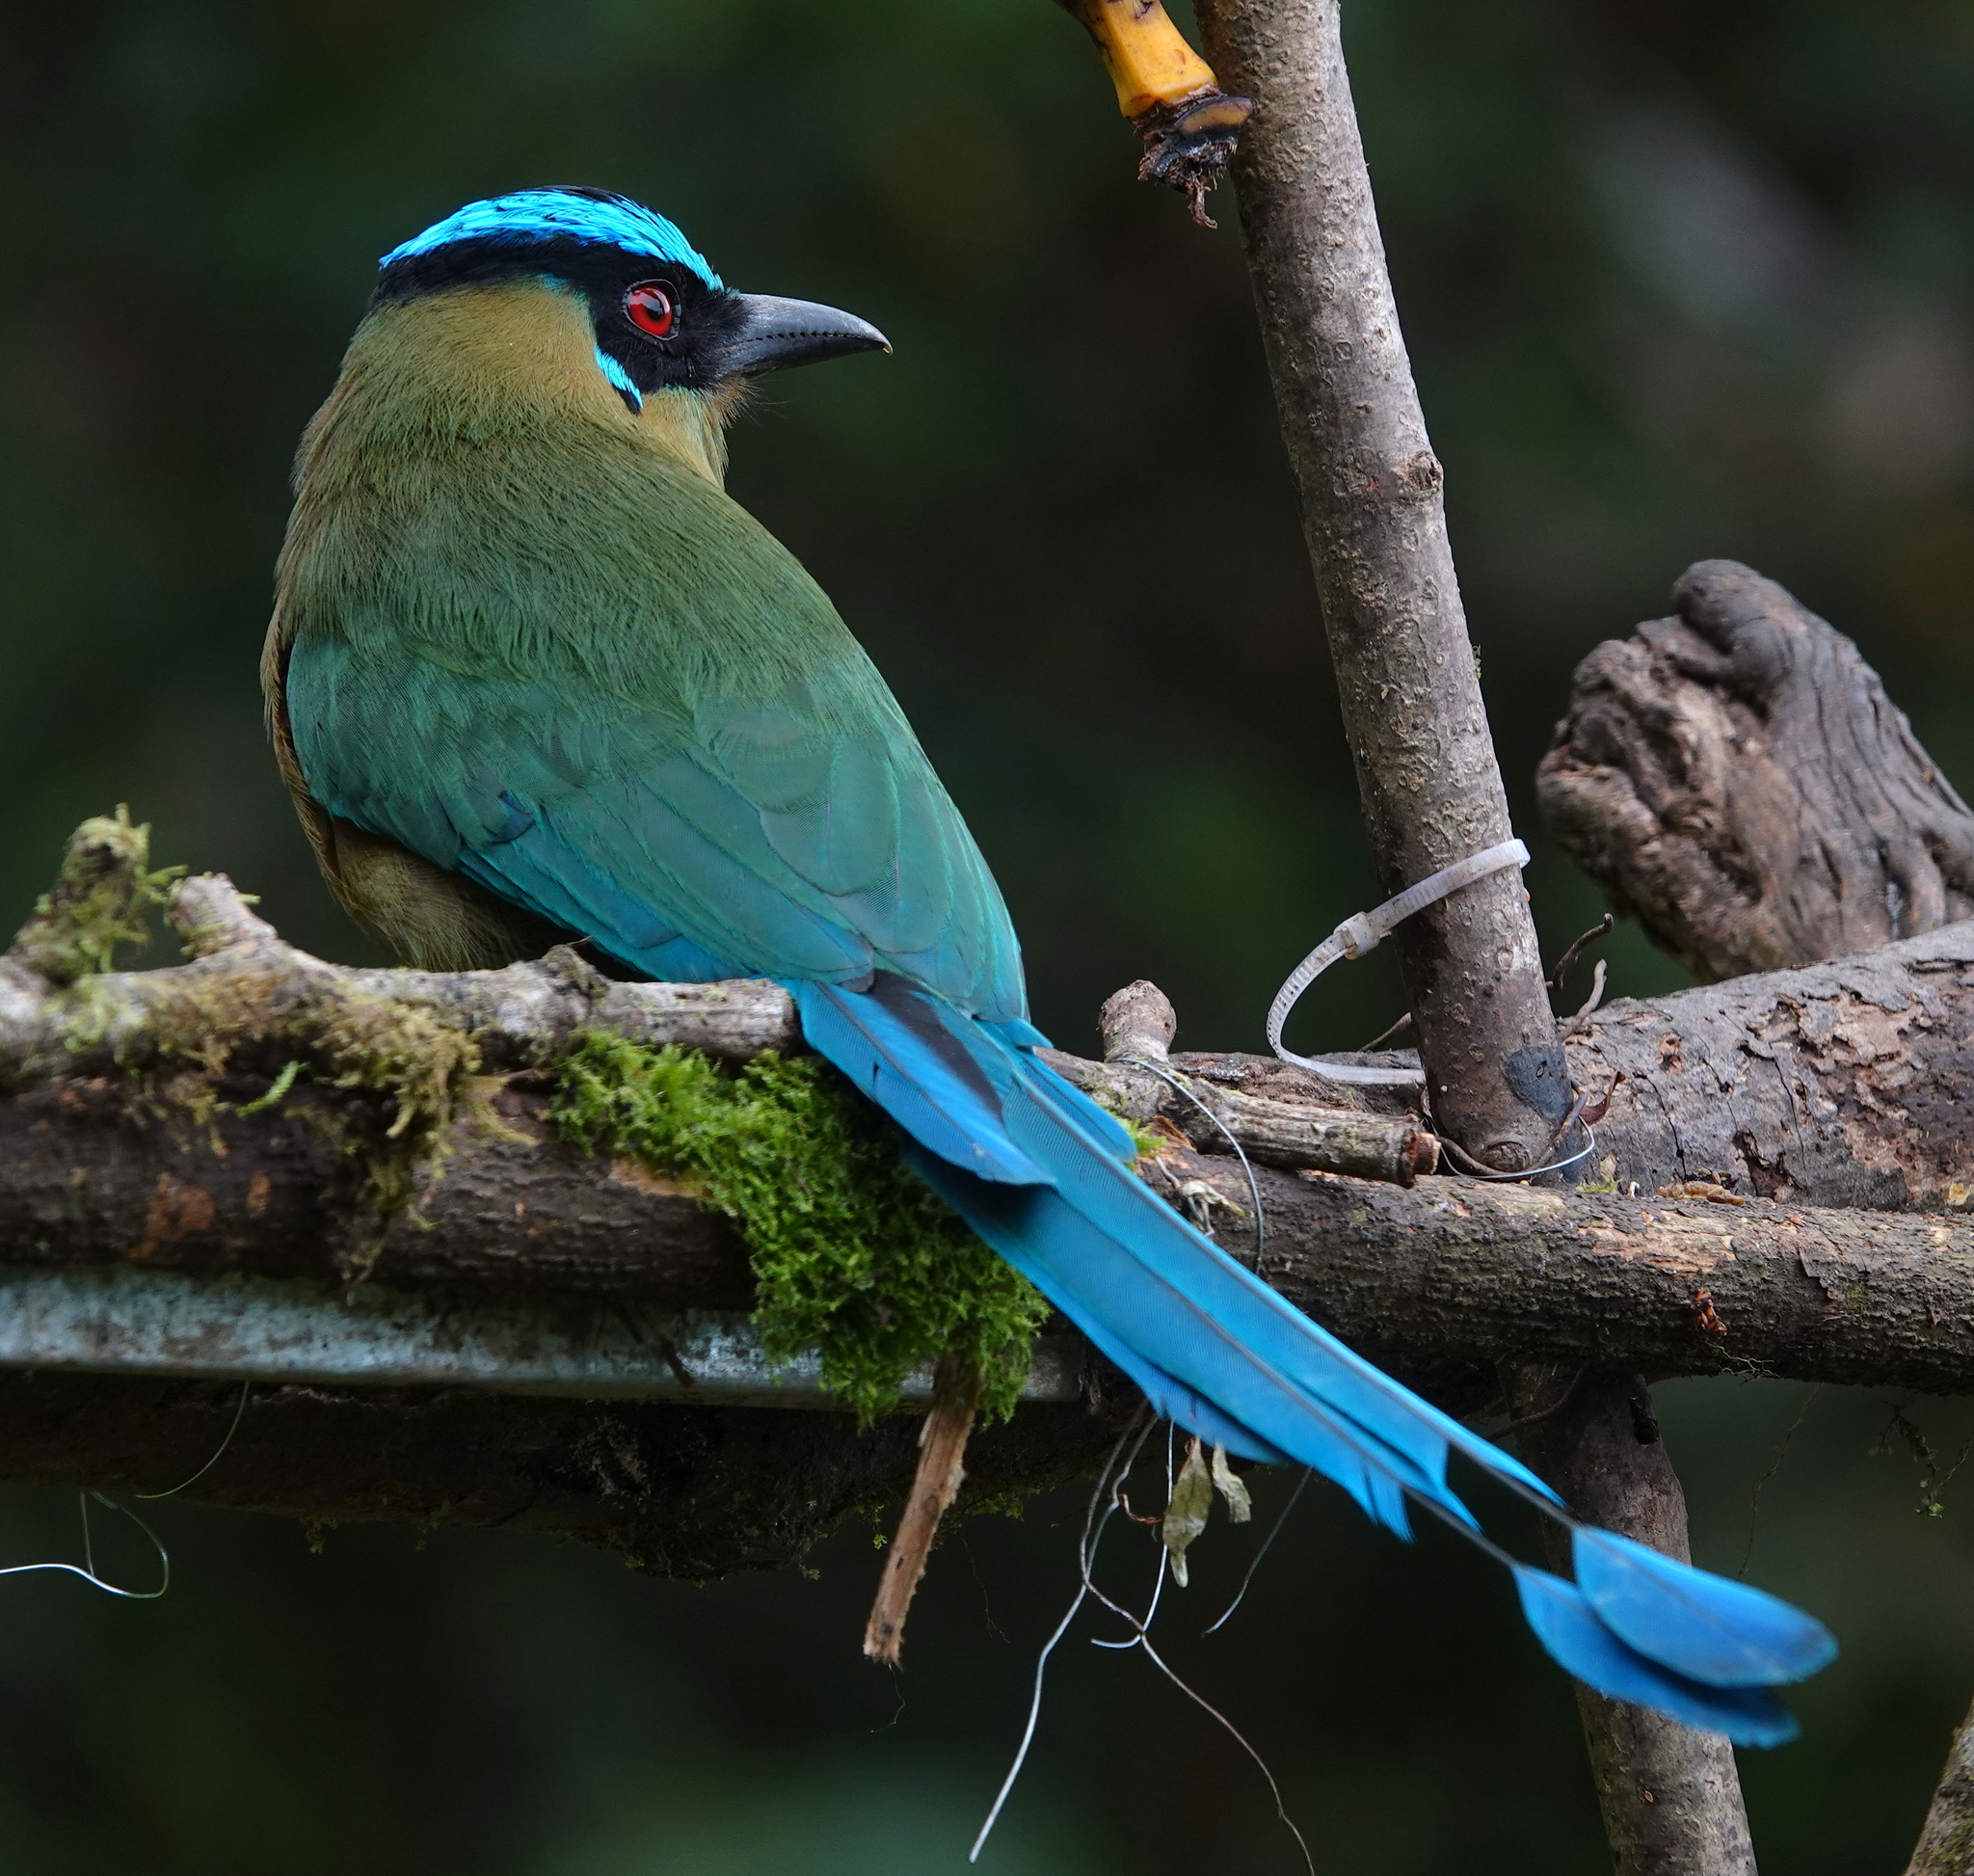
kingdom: Animalia
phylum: Chordata
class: Aves
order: Coraciiformes
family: Momotidae
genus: Momotus
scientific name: Momotus aequatorialis
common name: Andean motmot
